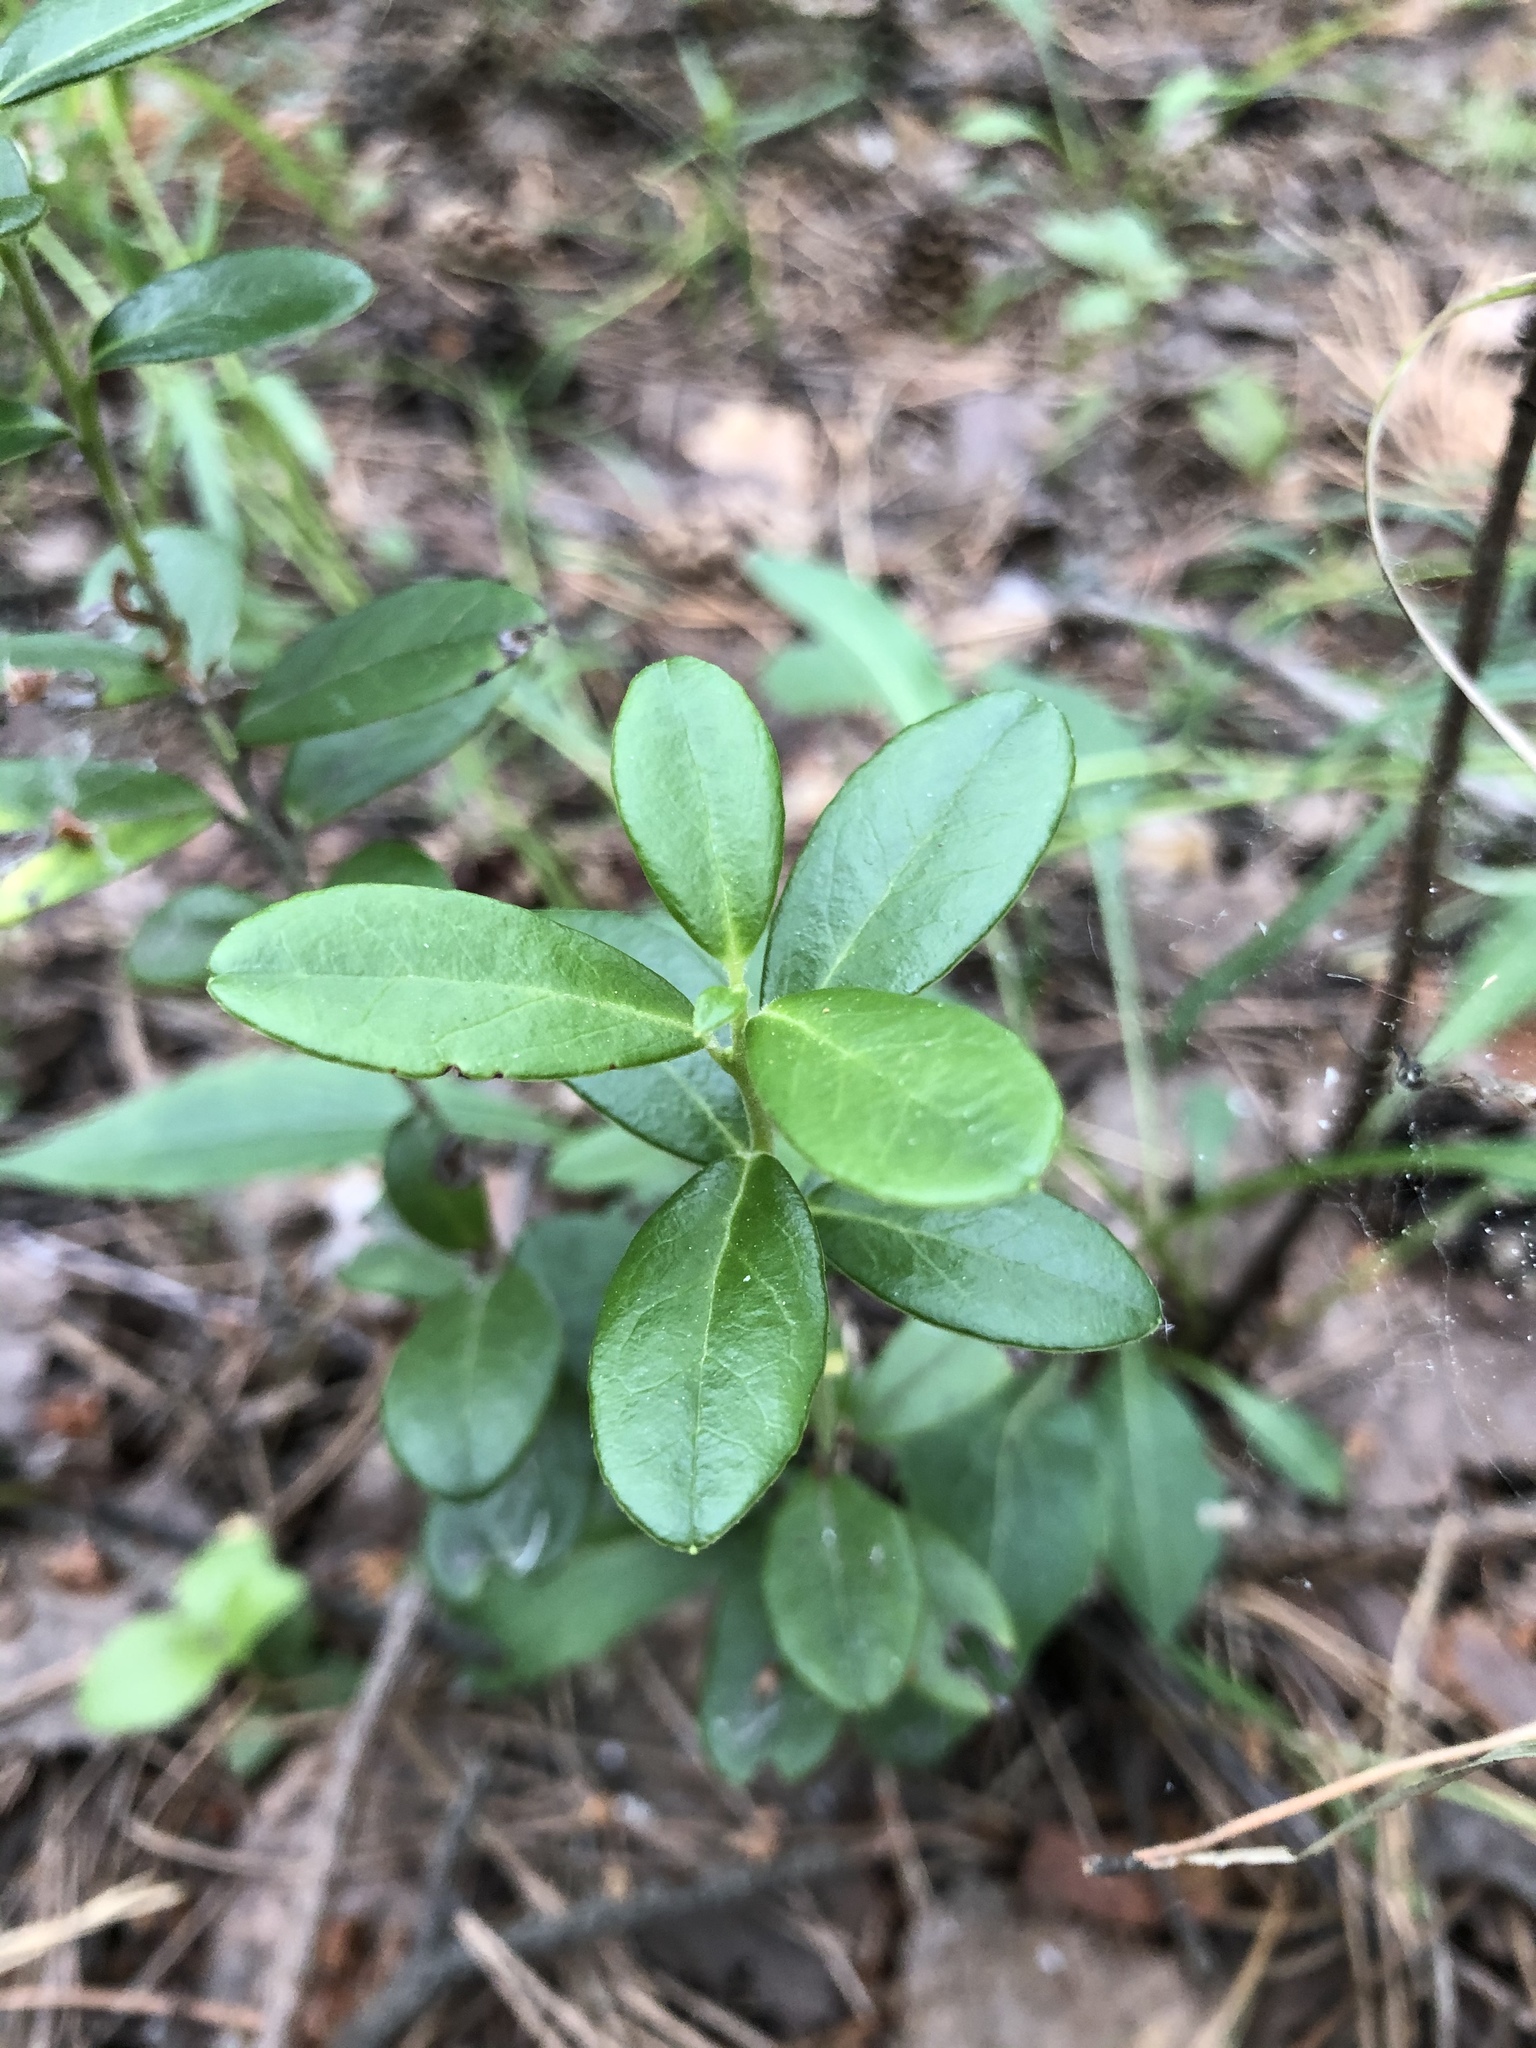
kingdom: Plantae
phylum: Tracheophyta
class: Magnoliopsida
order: Ericales
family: Ericaceae
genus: Vaccinium
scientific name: Vaccinium vitis-idaea
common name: Cowberry
